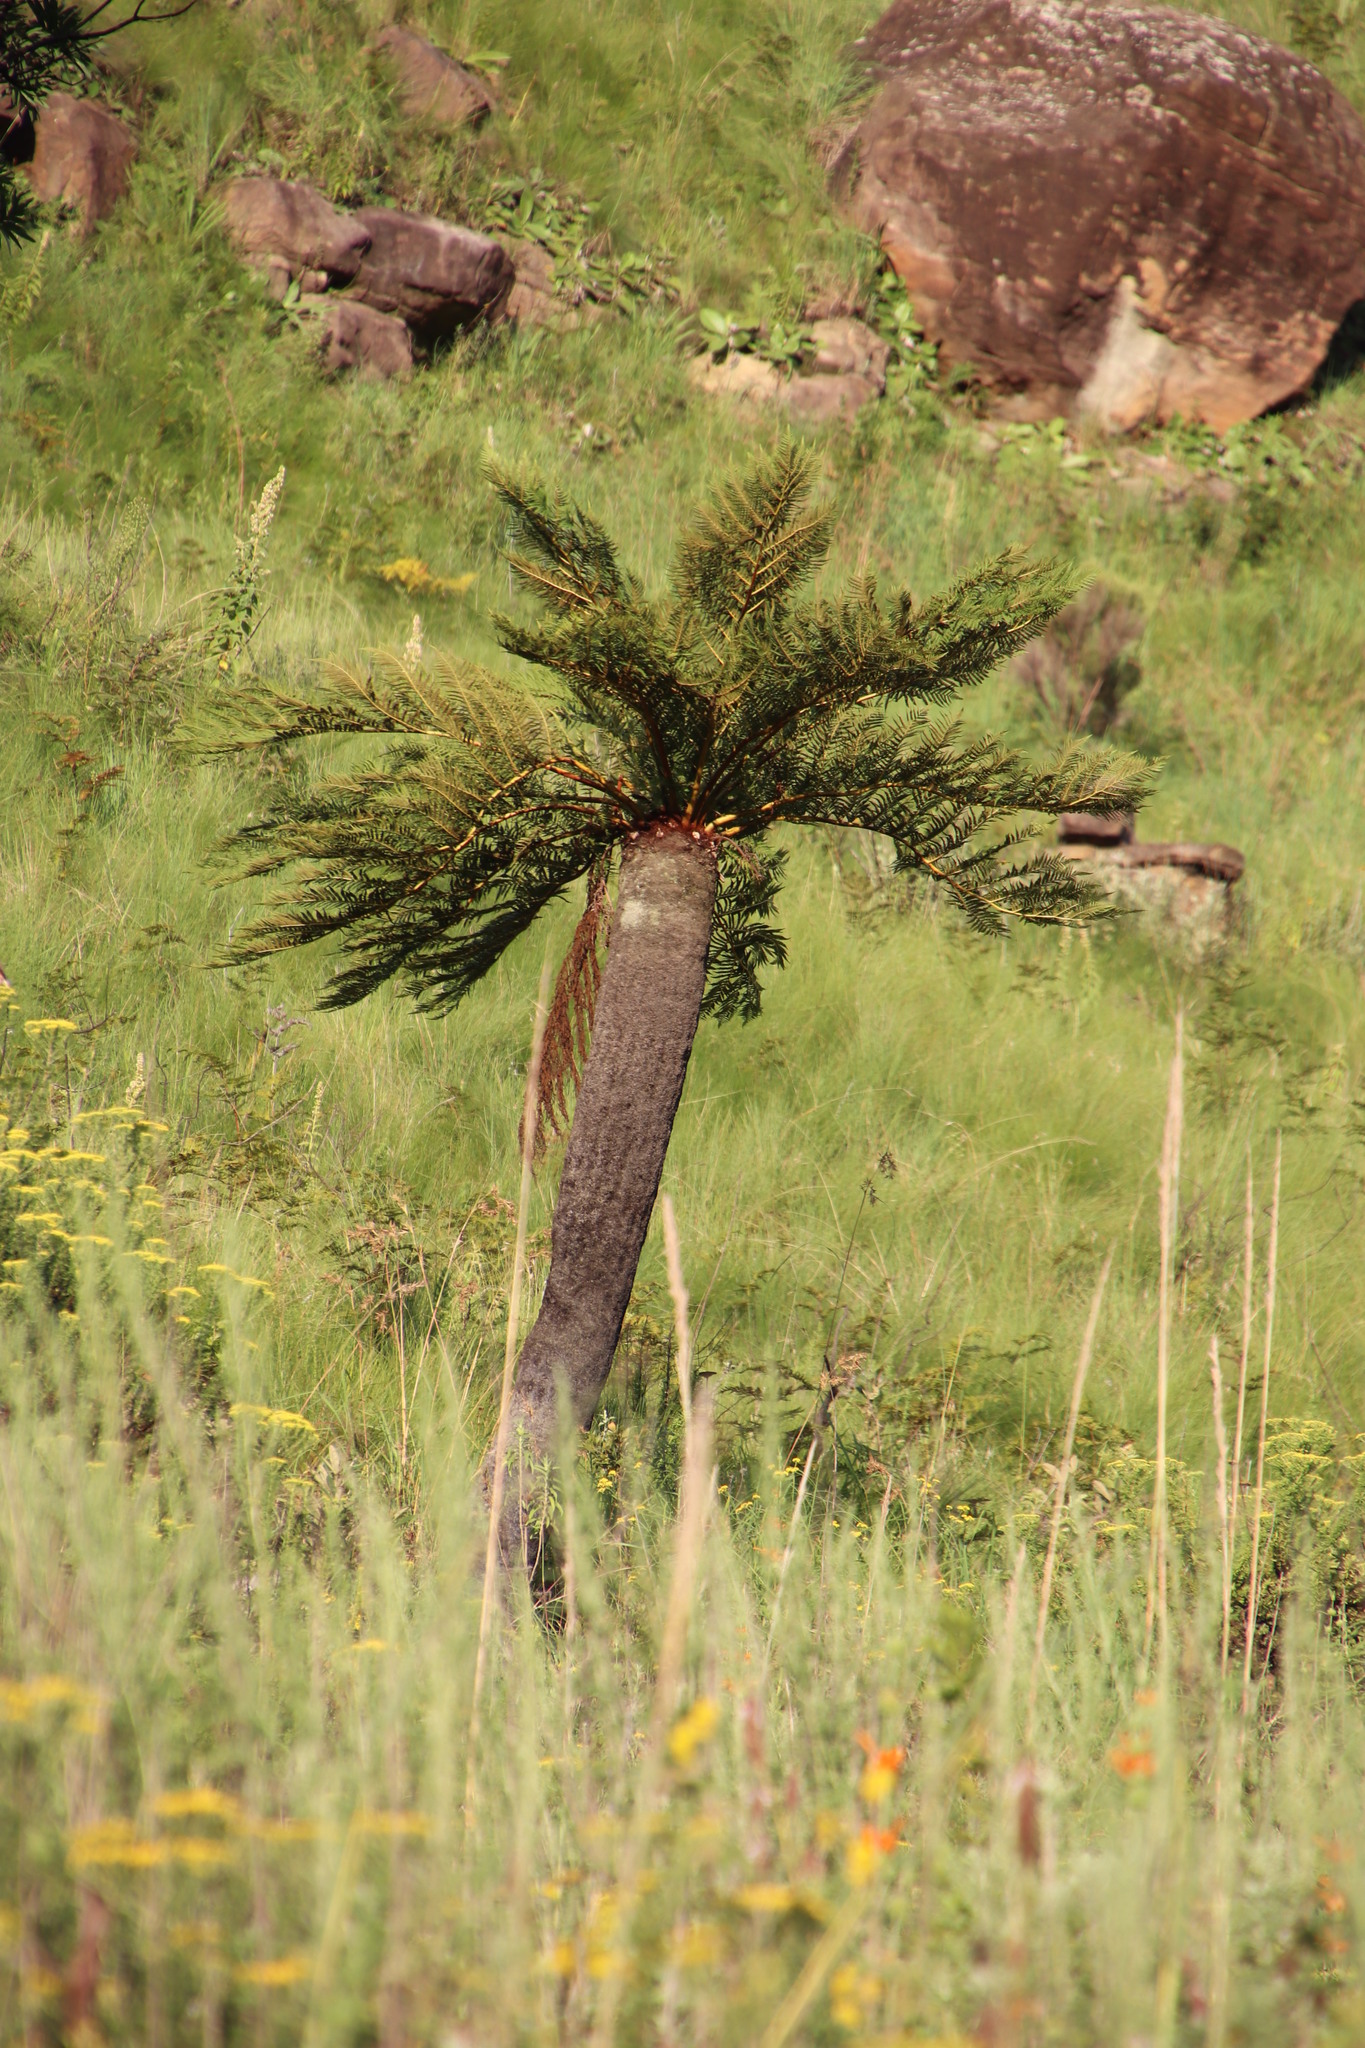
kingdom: Plantae
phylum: Tracheophyta
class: Polypodiopsida
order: Cyatheales
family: Cyatheaceae
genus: Alsophila
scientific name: Alsophila dregei
